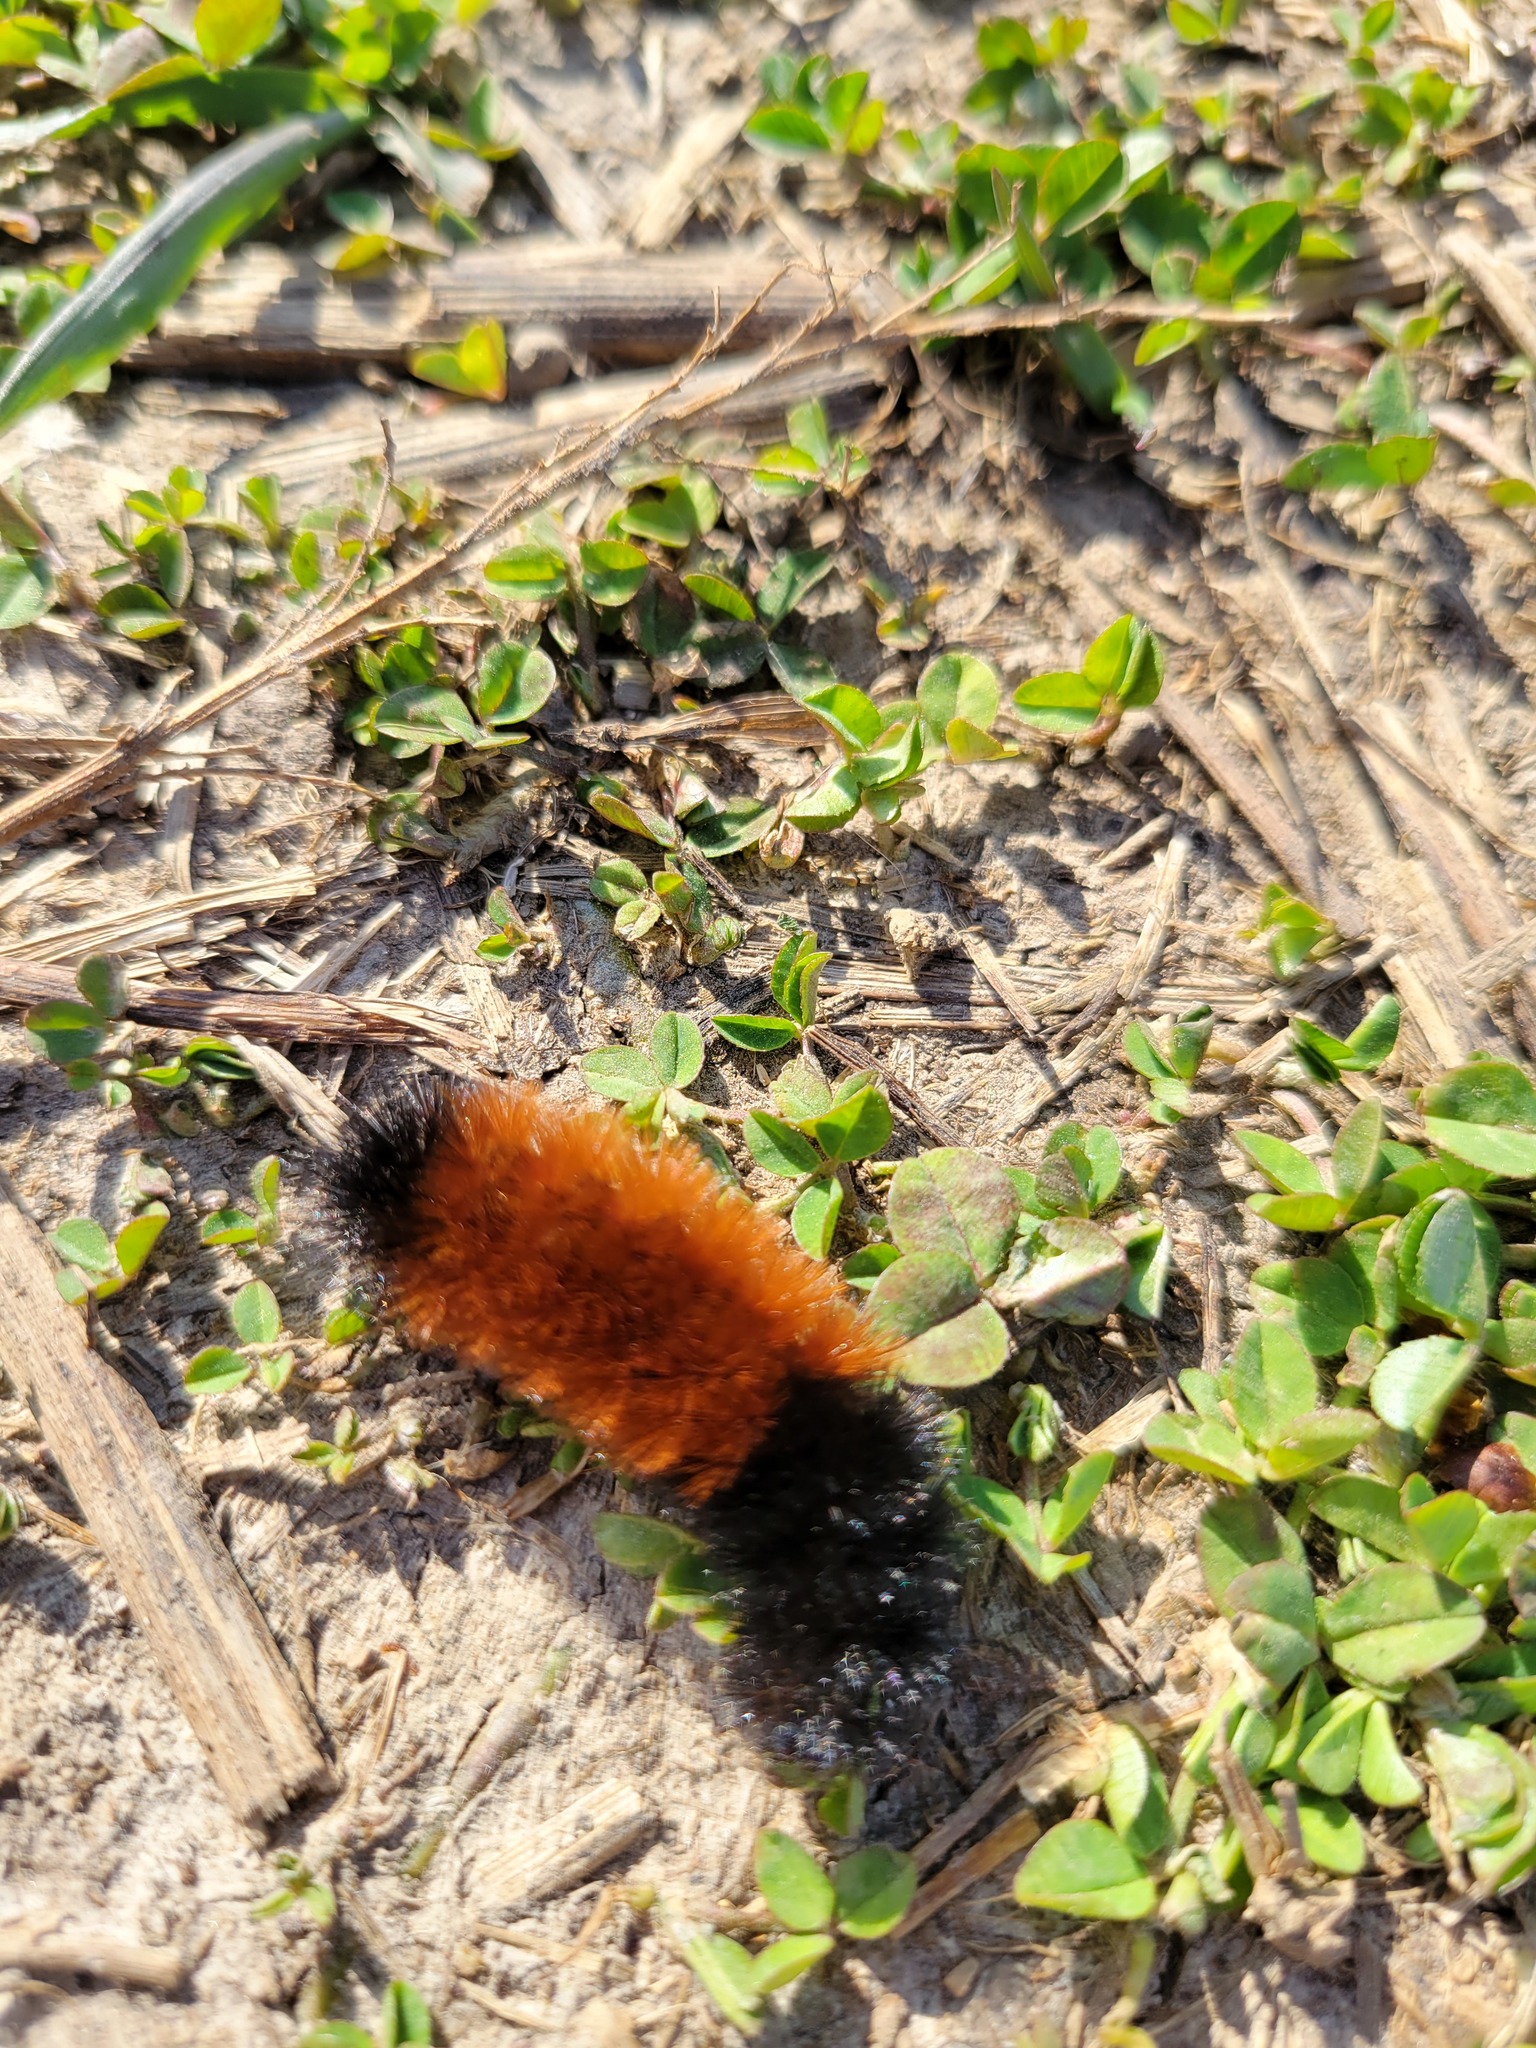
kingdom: Animalia
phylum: Arthropoda
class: Insecta
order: Lepidoptera
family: Erebidae
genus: Pyrrharctia
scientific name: Pyrrharctia isabella
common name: Isabella tiger moth
